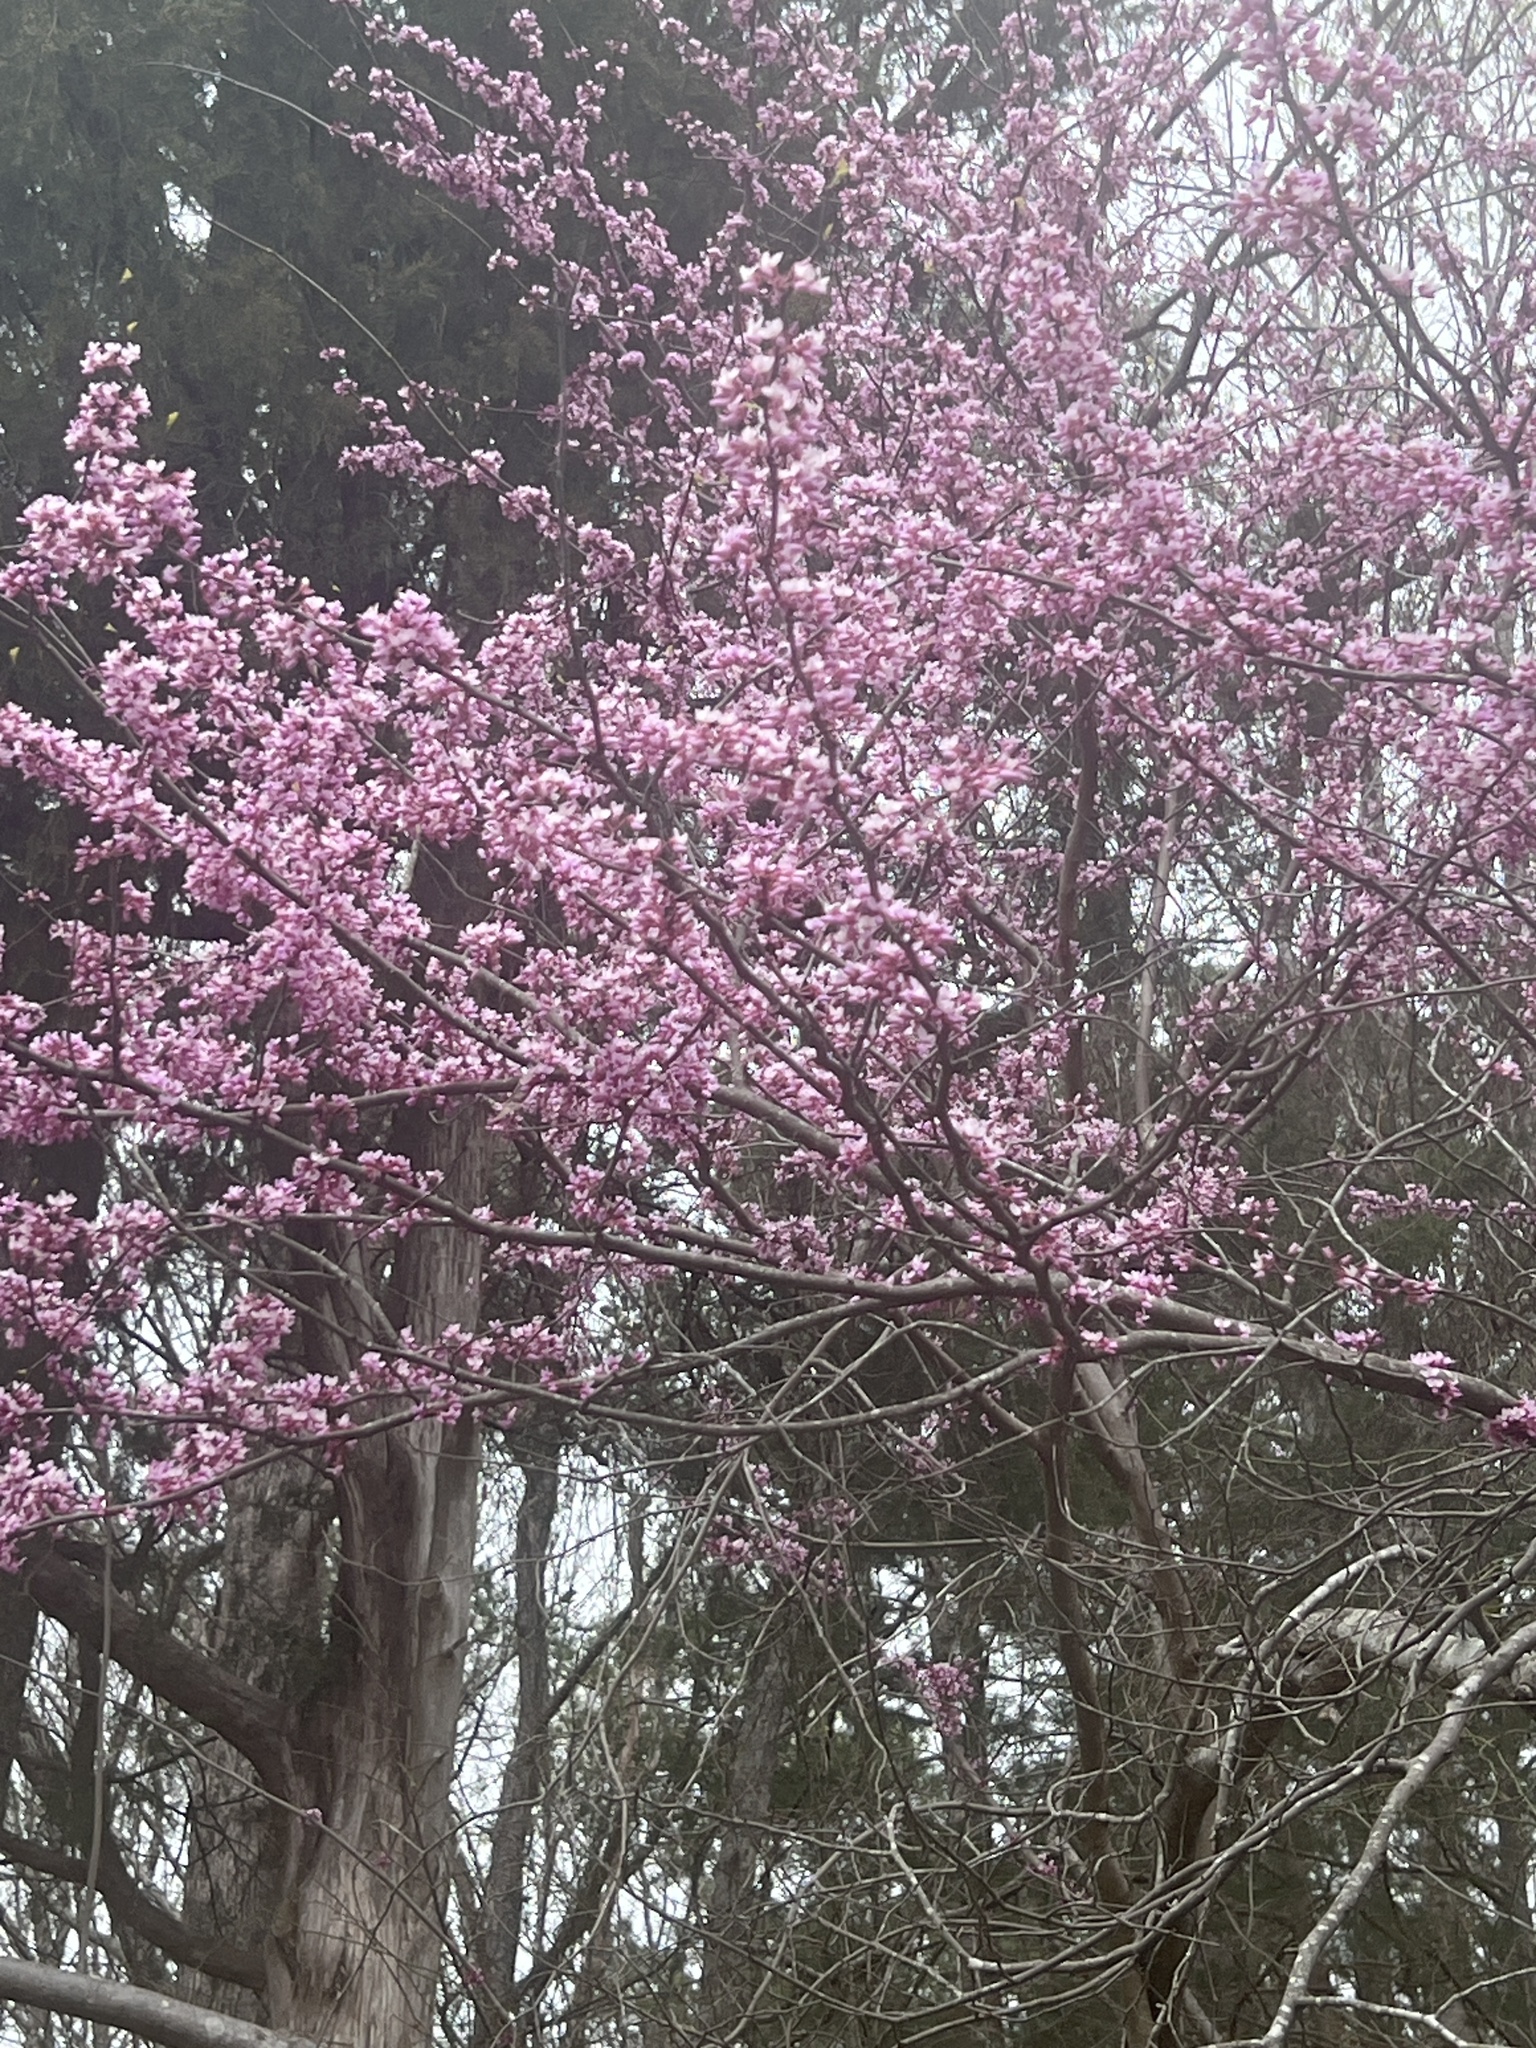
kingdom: Plantae
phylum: Tracheophyta
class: Magnoliopsida
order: Fabales
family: Fabaceae
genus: Cercis
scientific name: Cercis canadensis
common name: Eastern redbud
